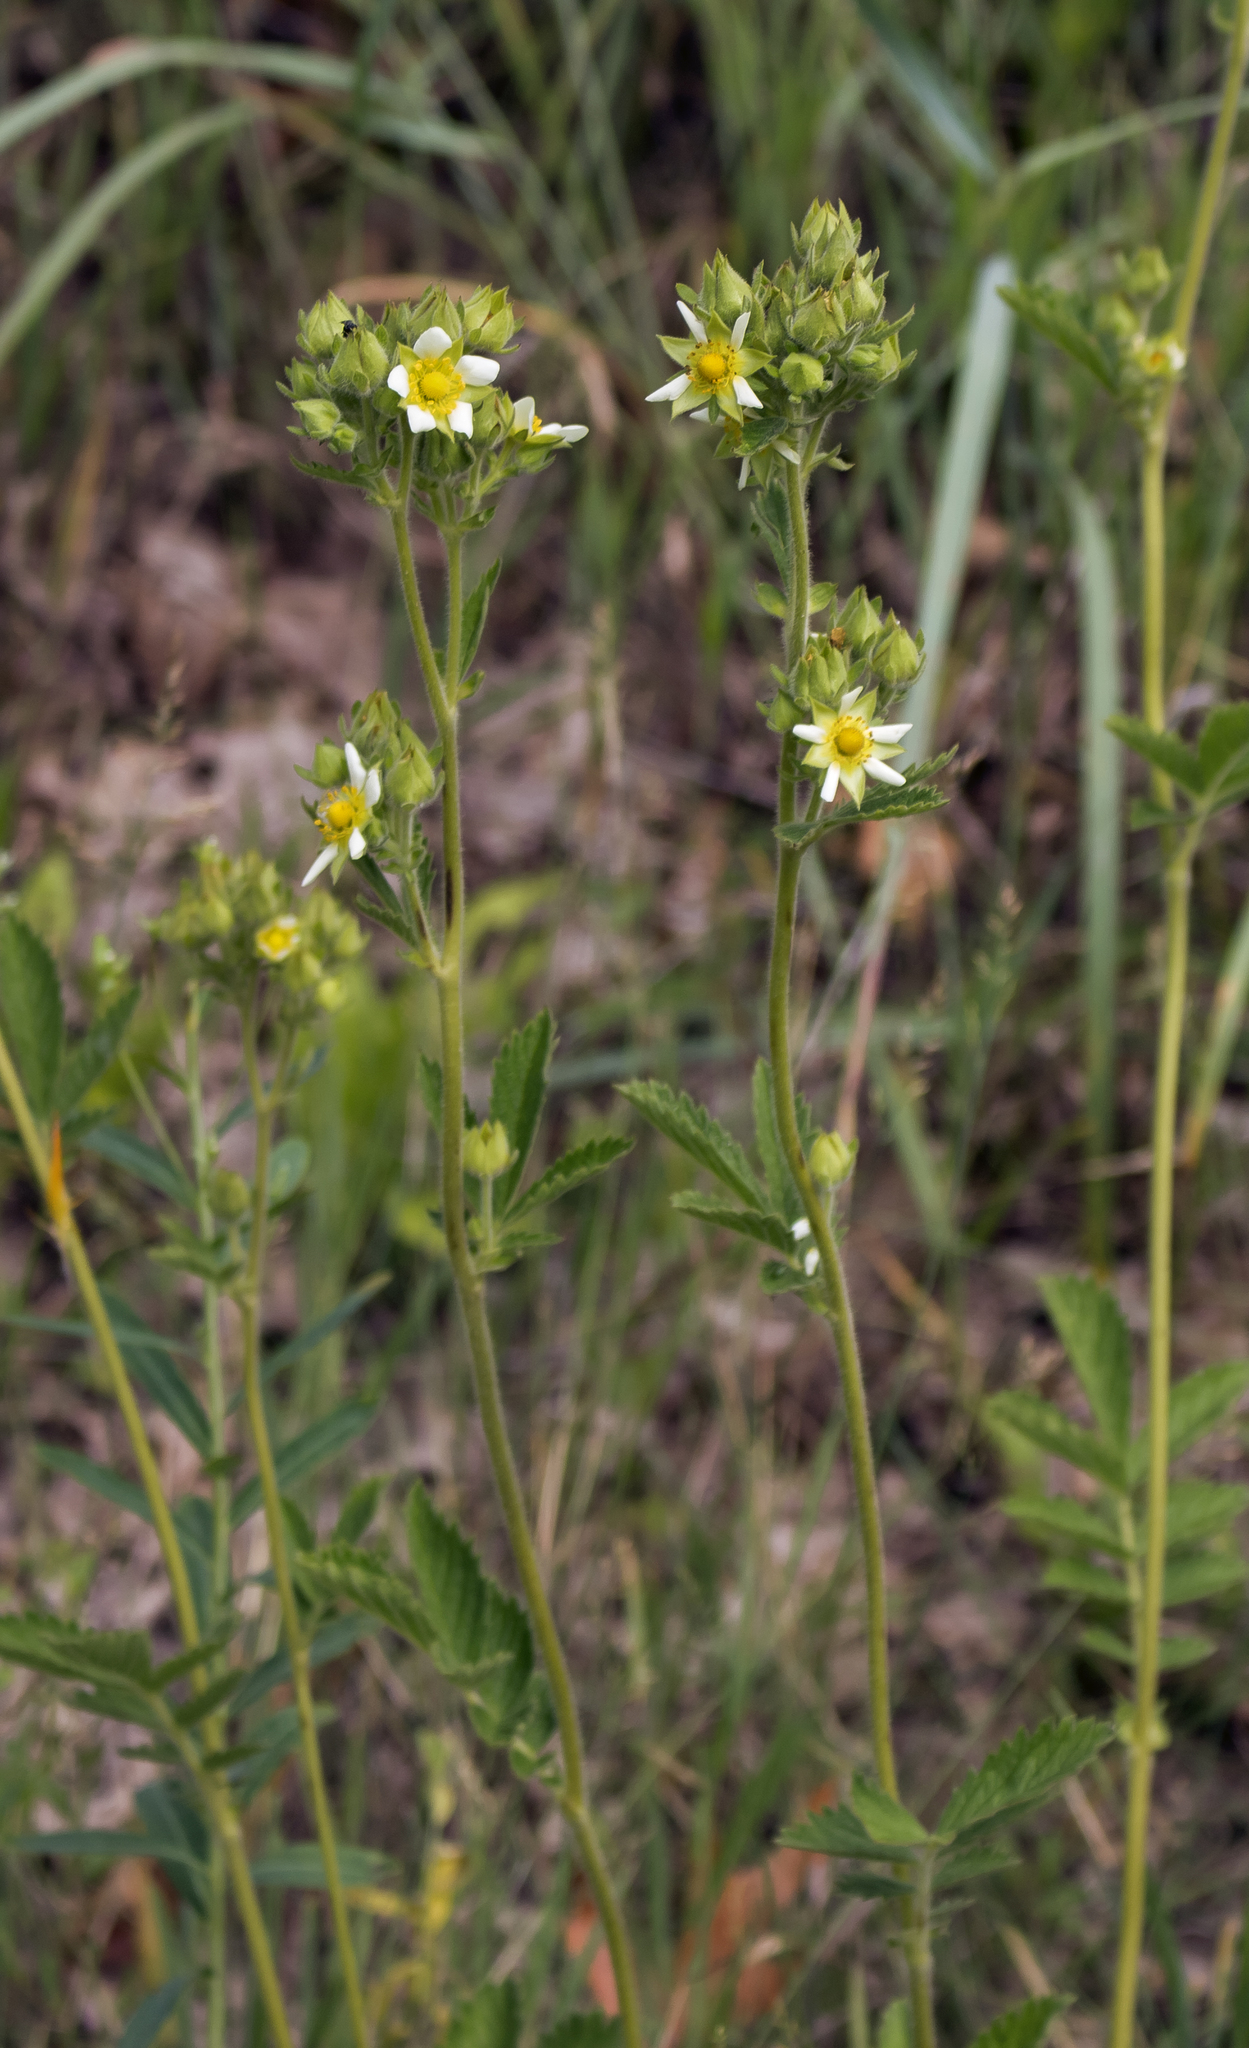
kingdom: Plantae
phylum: Tracheophyta
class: Magnoliopsida
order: Rosales
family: Rosaceae
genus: Drymocallis
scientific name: Drymocallis arguta
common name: Tall cinquefoil
